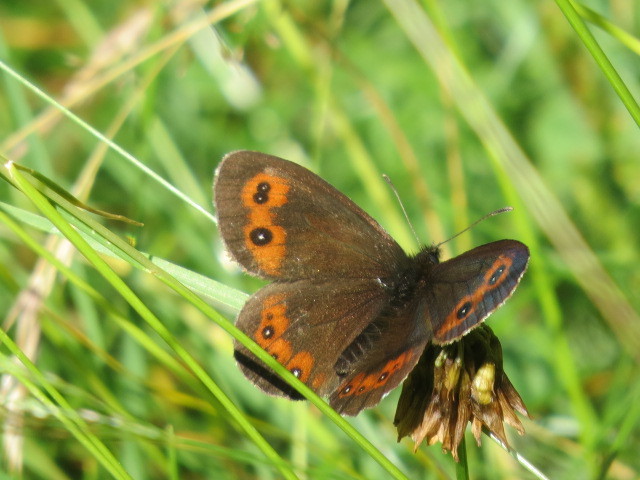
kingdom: Animalia
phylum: Arthropoda
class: Insecta
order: Lepidoptera
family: Nymphalidae
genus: Erebia
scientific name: Erebia euryale
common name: Large ringlet
